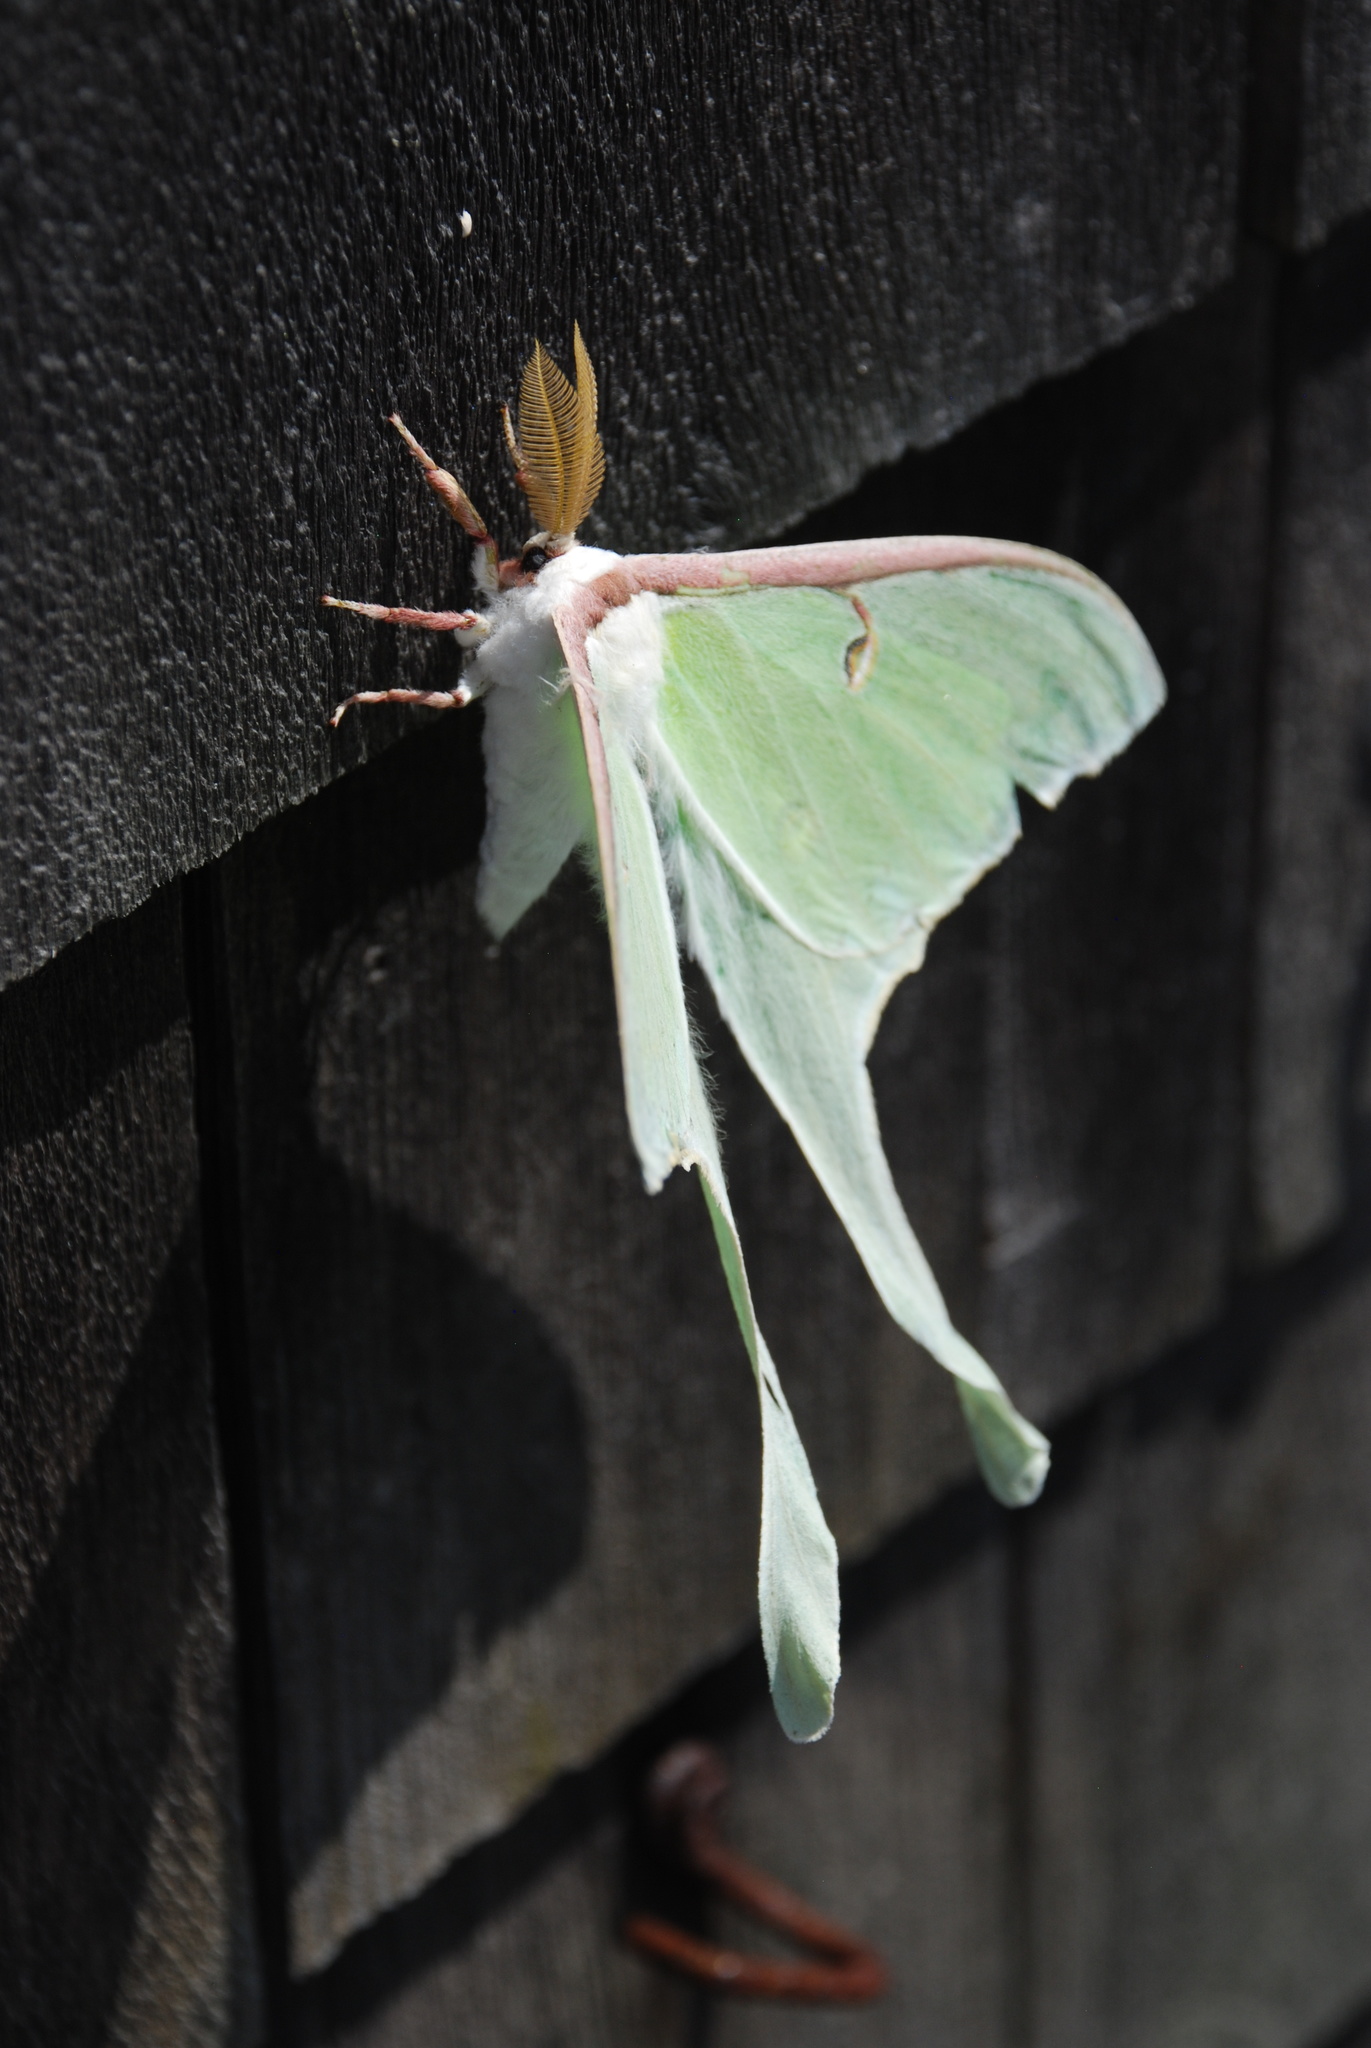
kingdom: Animalia
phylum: Arthropoda
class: Insecta
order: Lepidoptera
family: Saturniidae
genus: Actias
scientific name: Actias luna
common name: Luna moth
